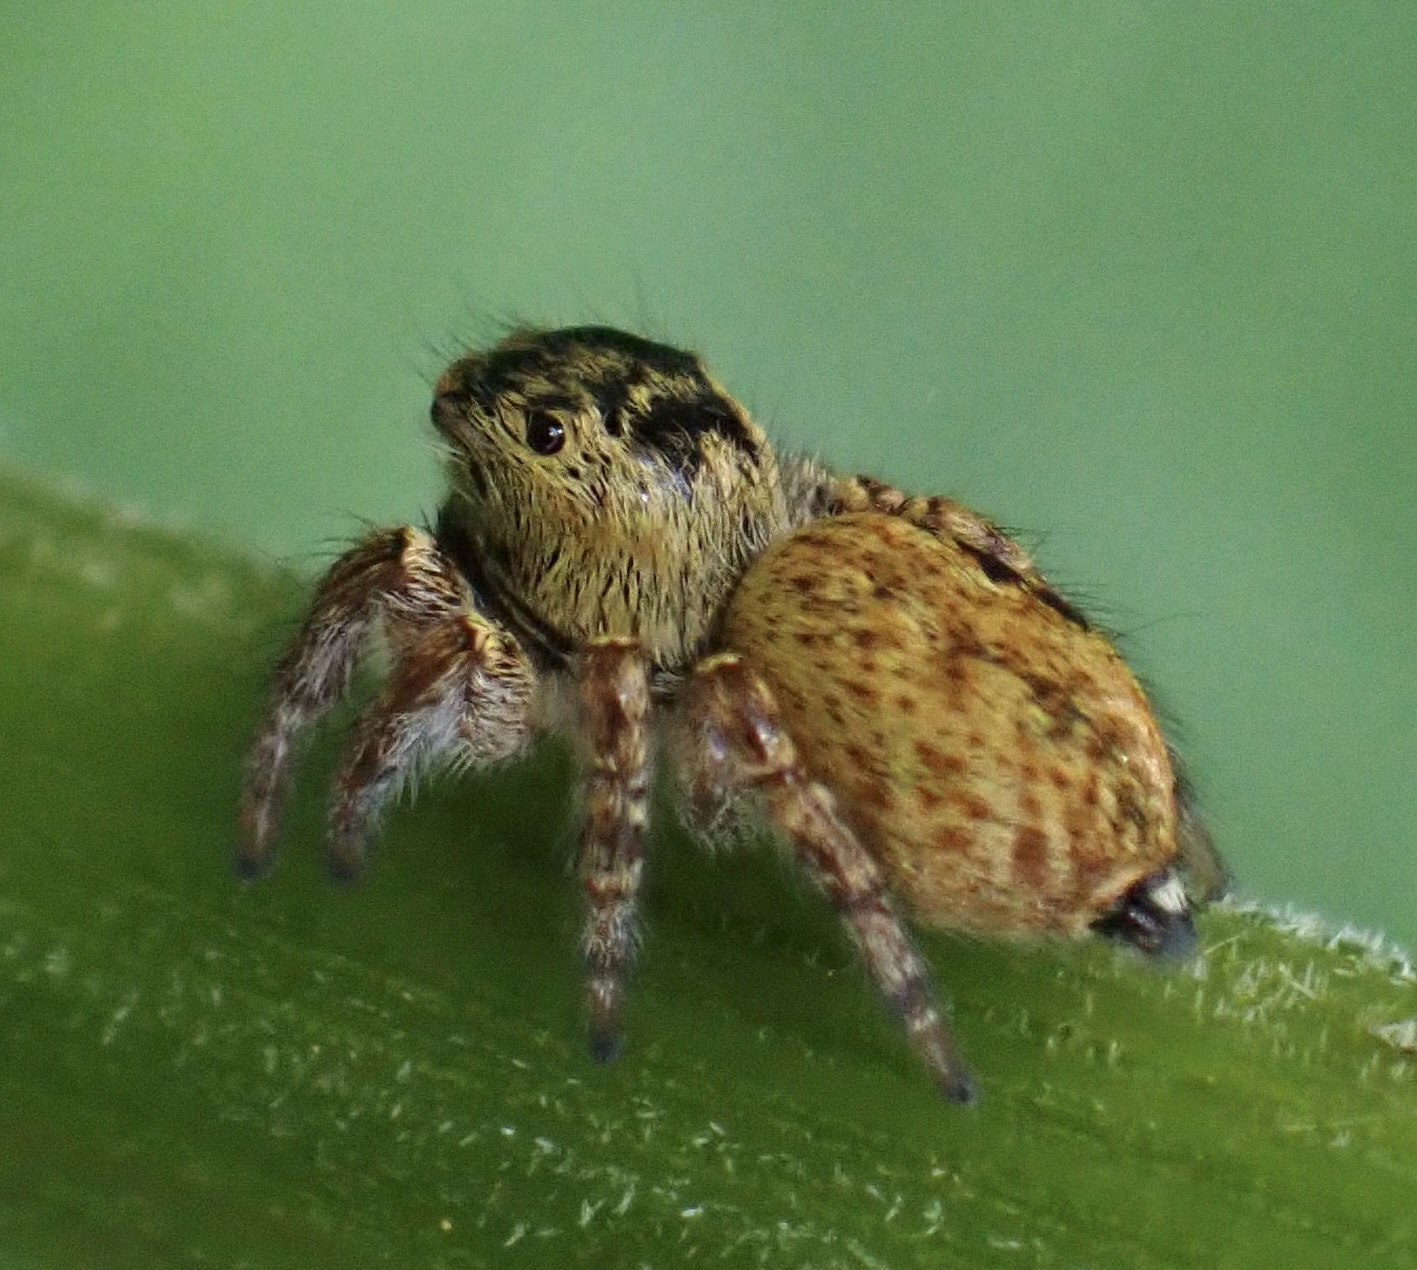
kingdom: Animalia
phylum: Arthropoda
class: Arachnida
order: Araneae
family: Salticidae
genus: Carrhotus
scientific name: Carrhotus xanthogramma
